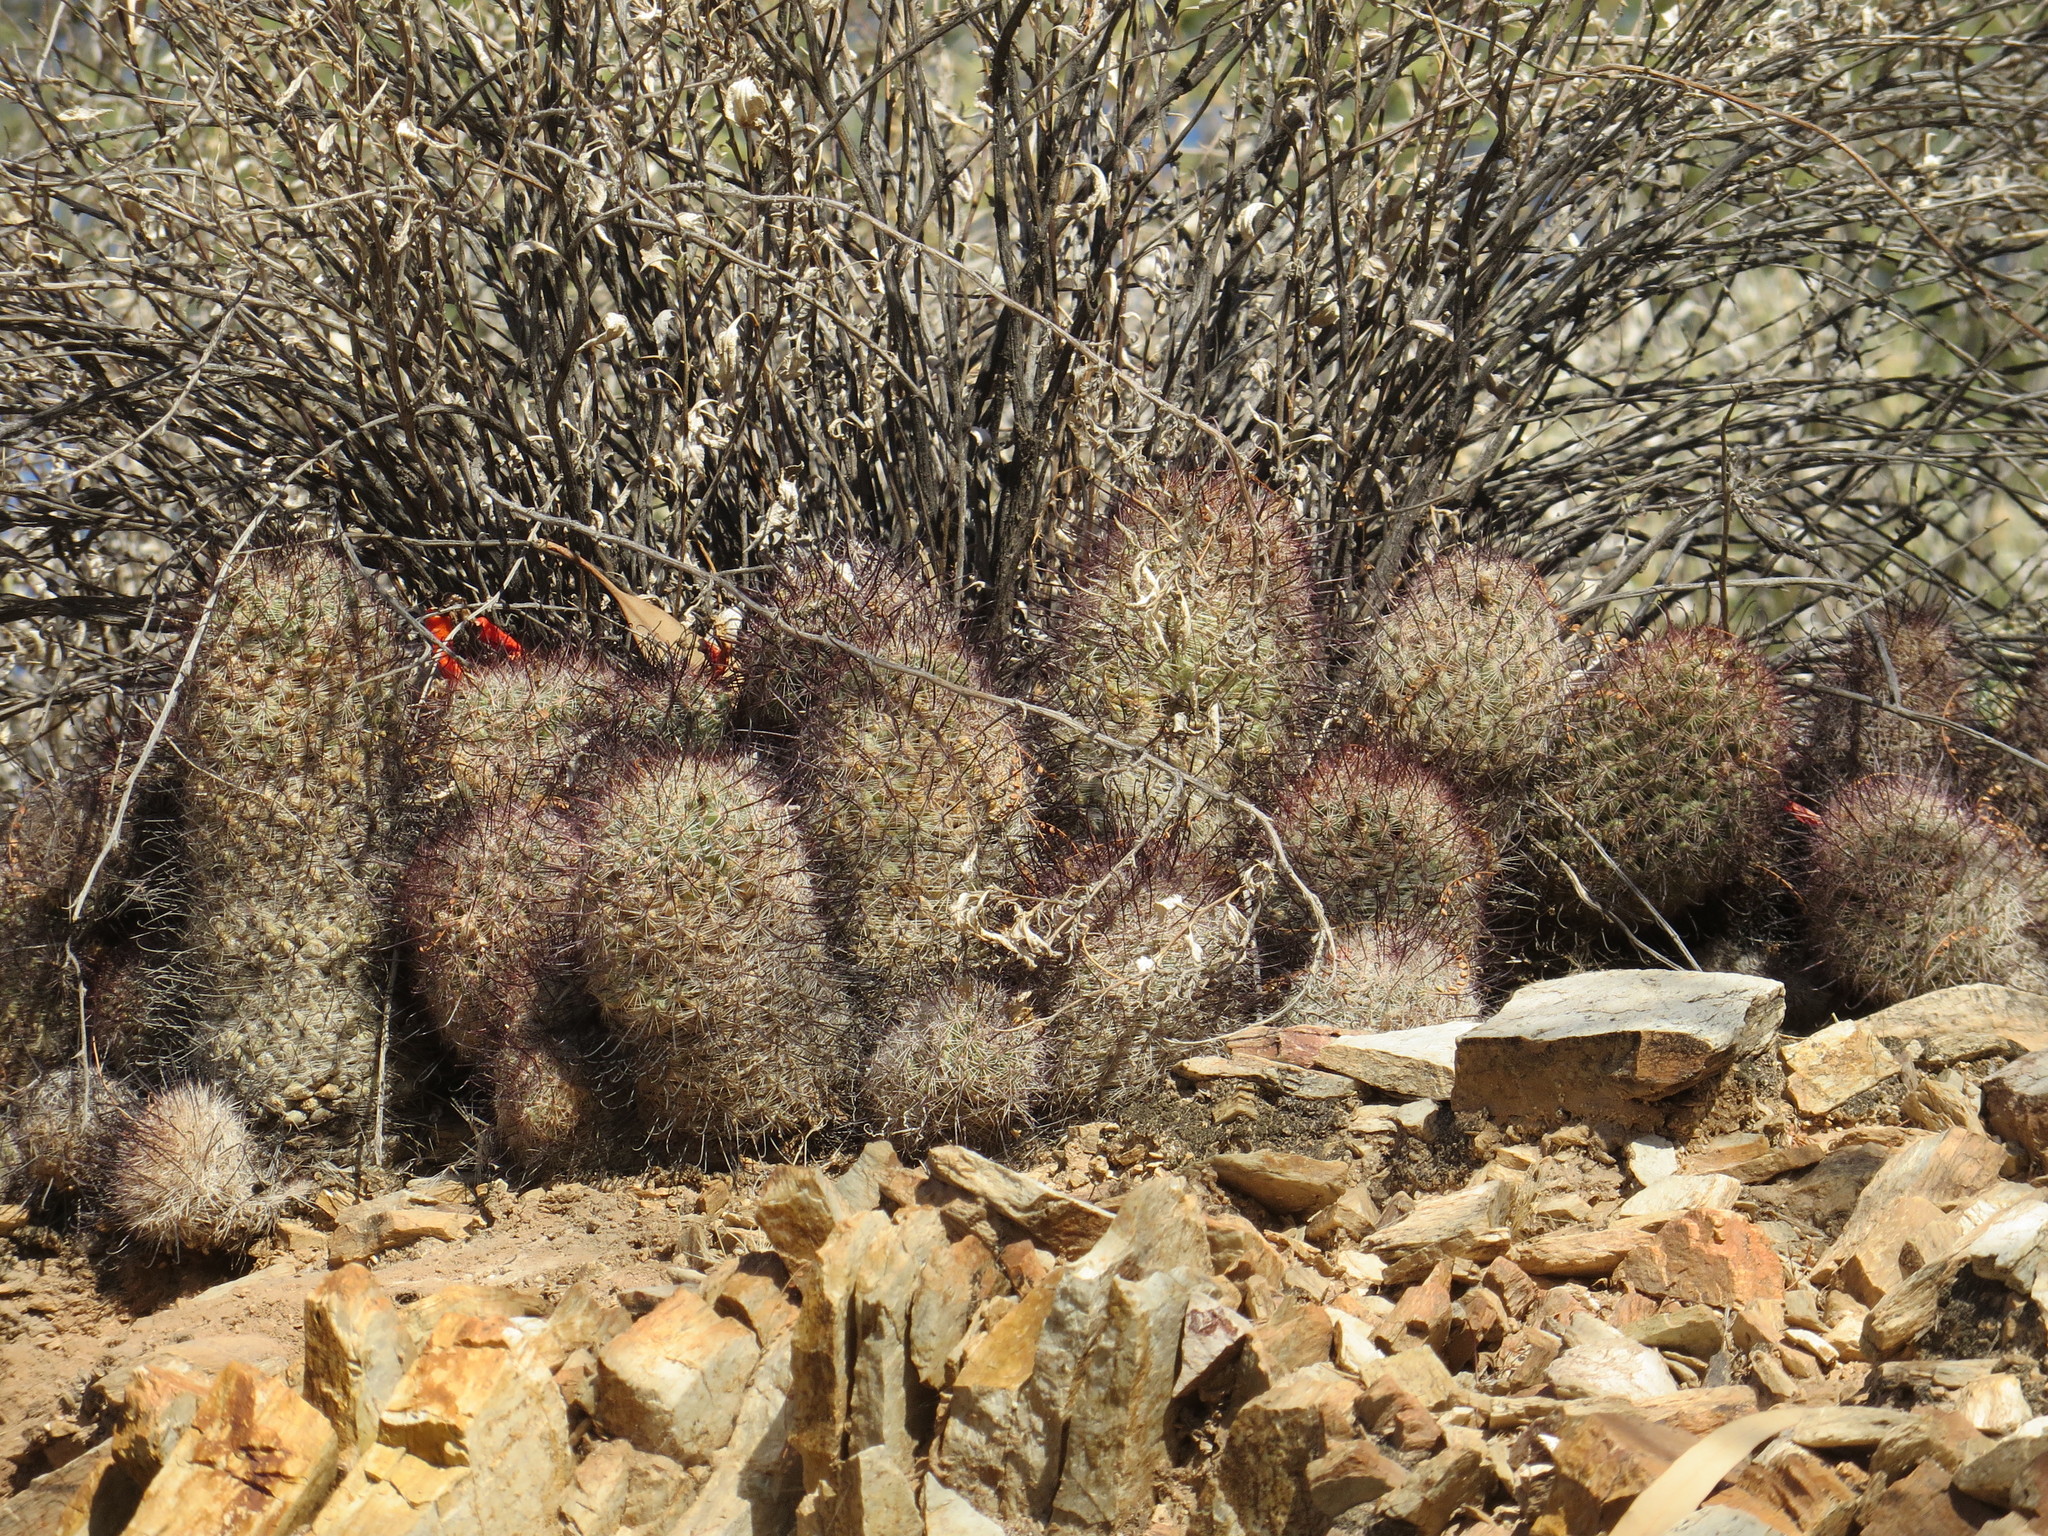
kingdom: Plantae
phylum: Tracheophyta
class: Magnoliopsida
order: Caryophyllales
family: Cactaceae
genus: Cochemiea
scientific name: Cochemiea grahamii
